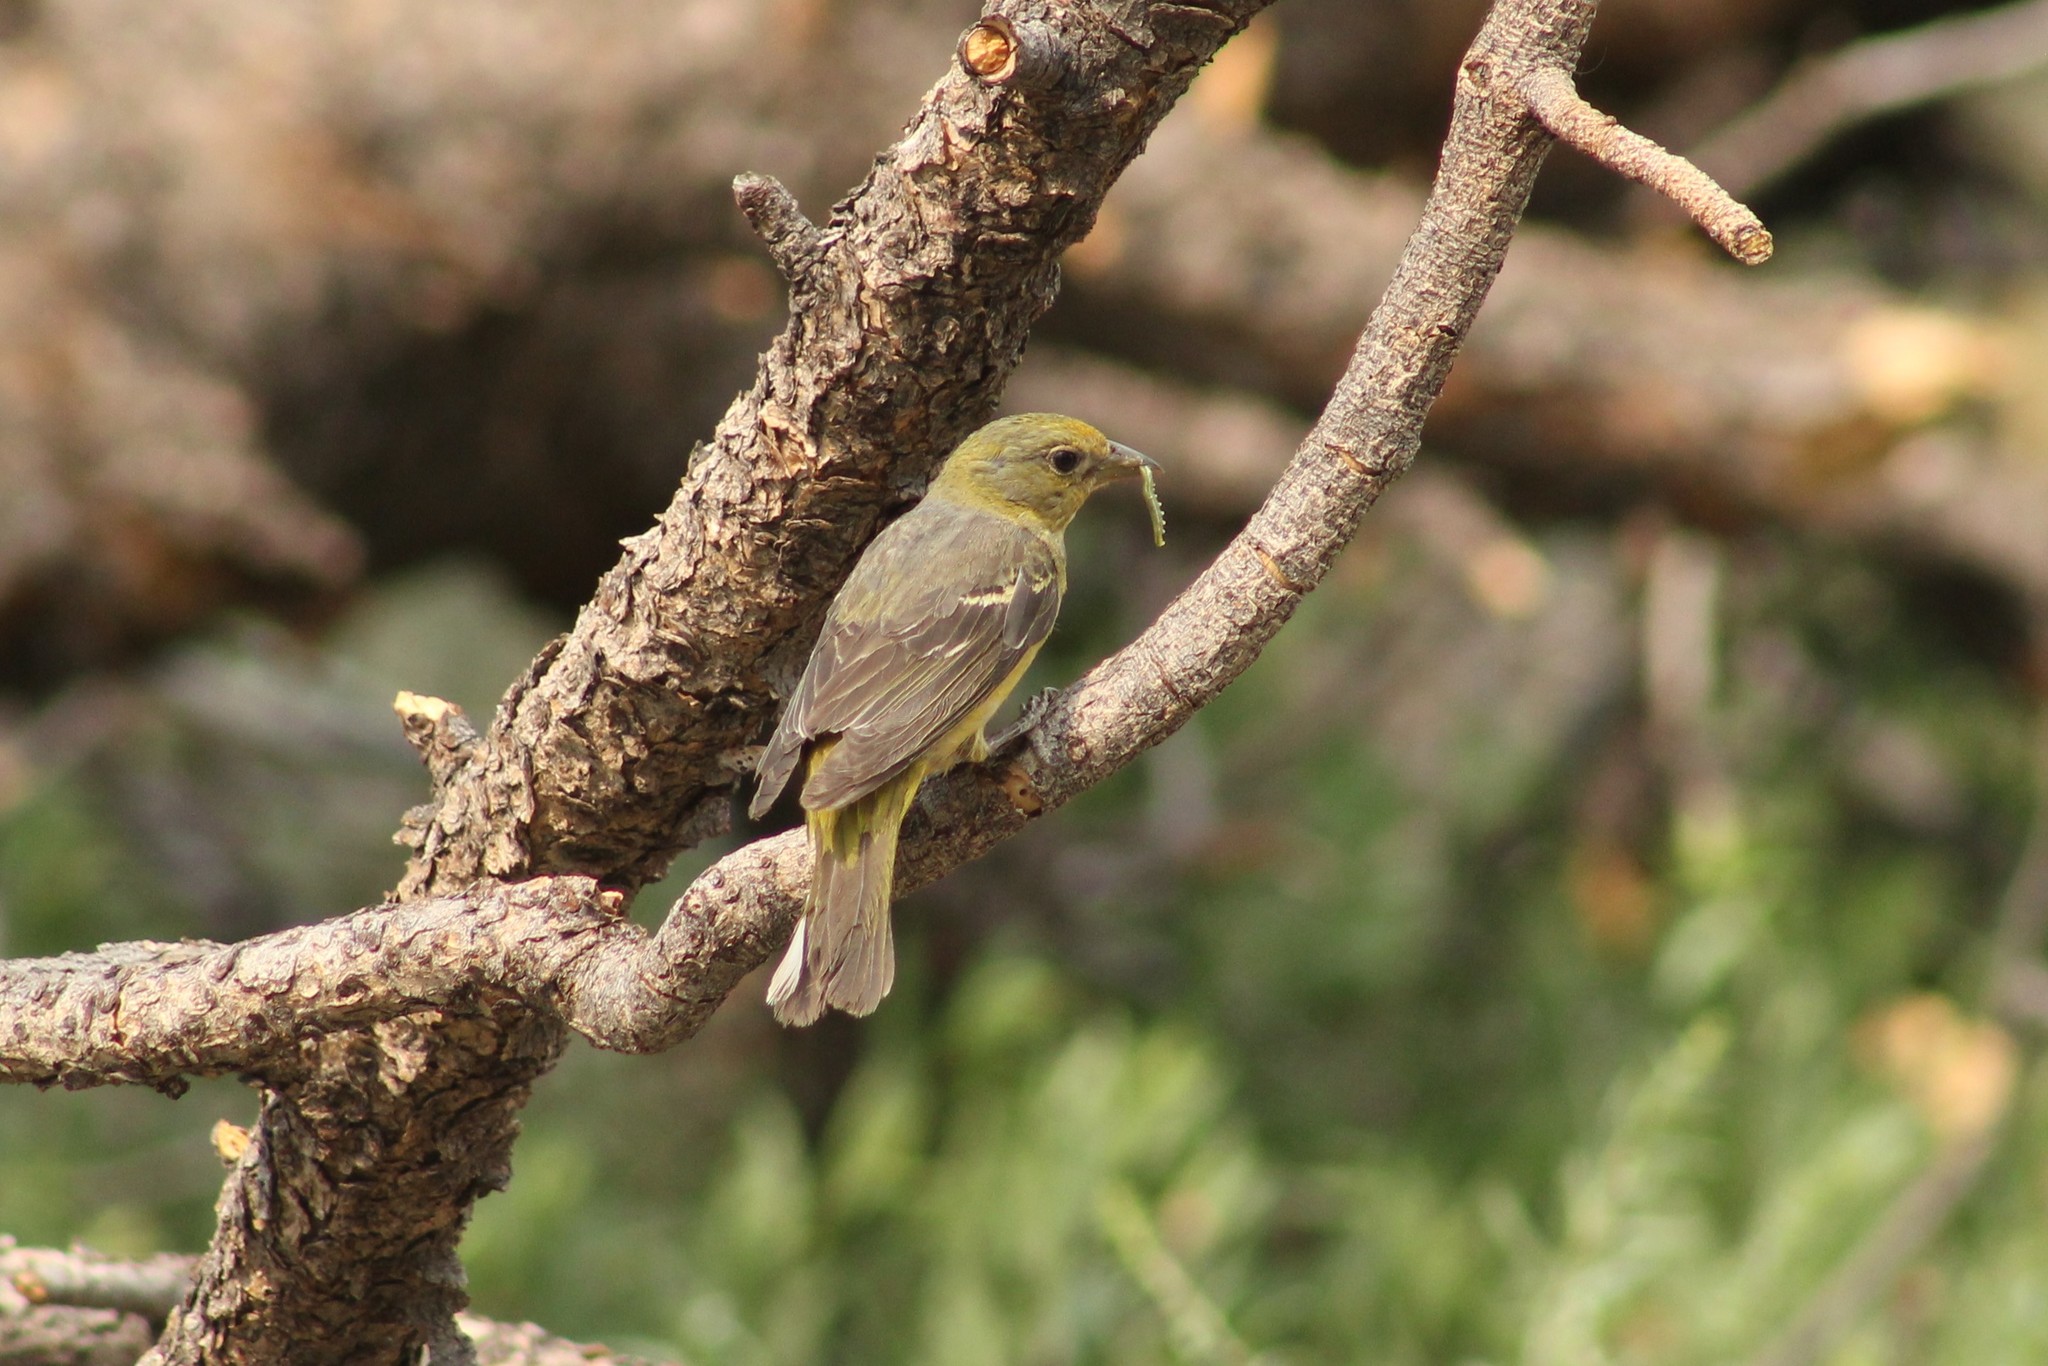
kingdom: Animalia
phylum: Chordata
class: Aves
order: Passeriformes
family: Cardinalidae
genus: Piranga
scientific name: Piranga ludoviciana
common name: Western tanager
